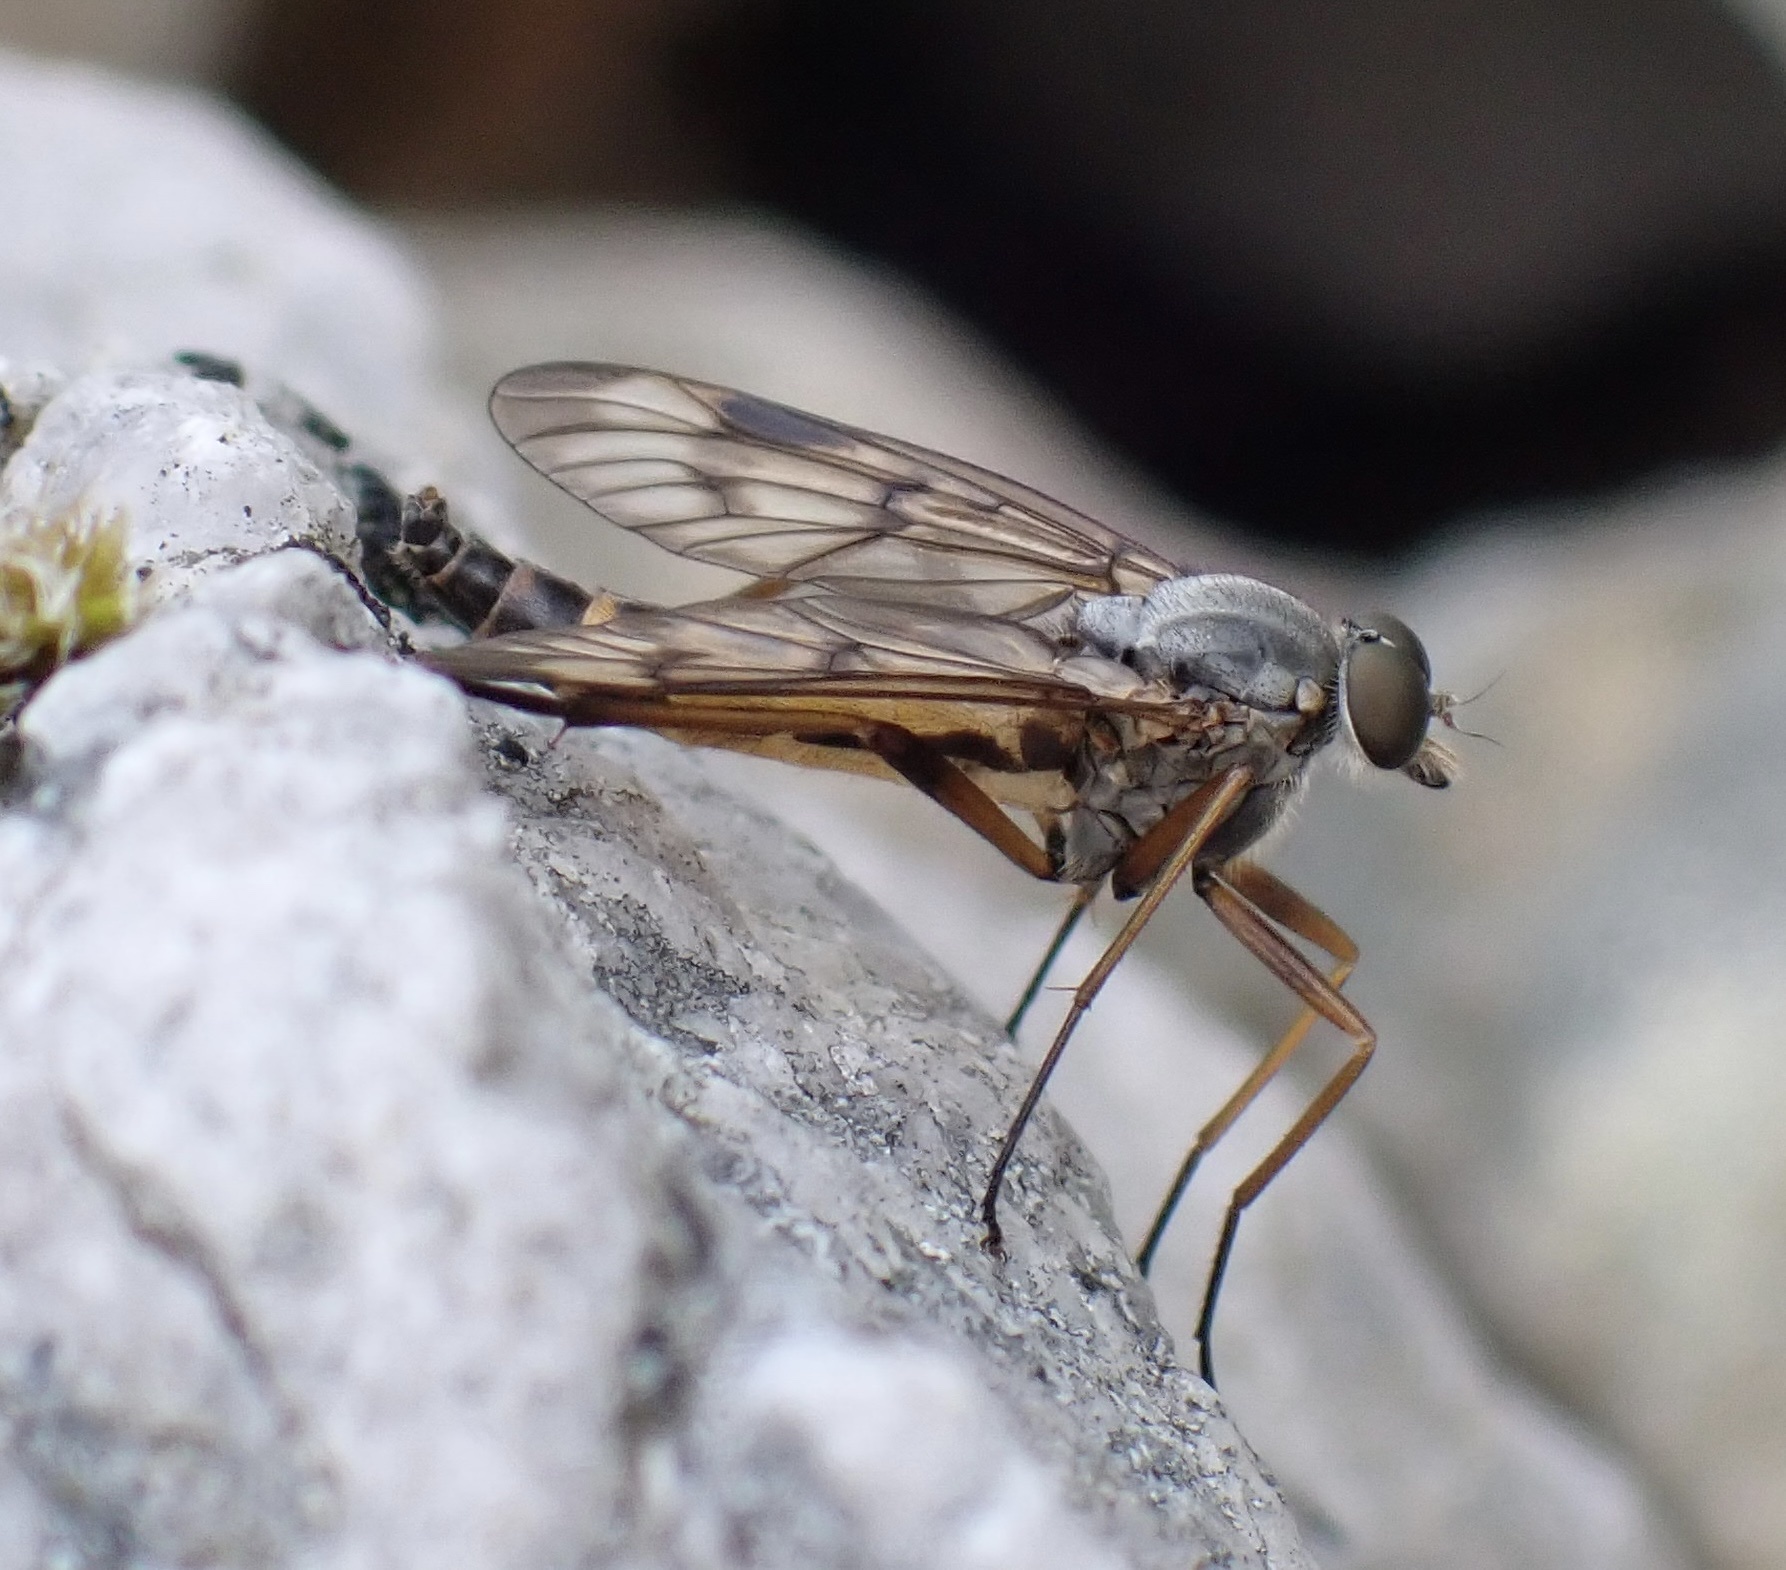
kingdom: Animalia
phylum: Arthropoda
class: Insecta
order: Diptera
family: Rhagionidae
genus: Rhagio
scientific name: Rhagio scolopacea
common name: Downlooker snipefly
